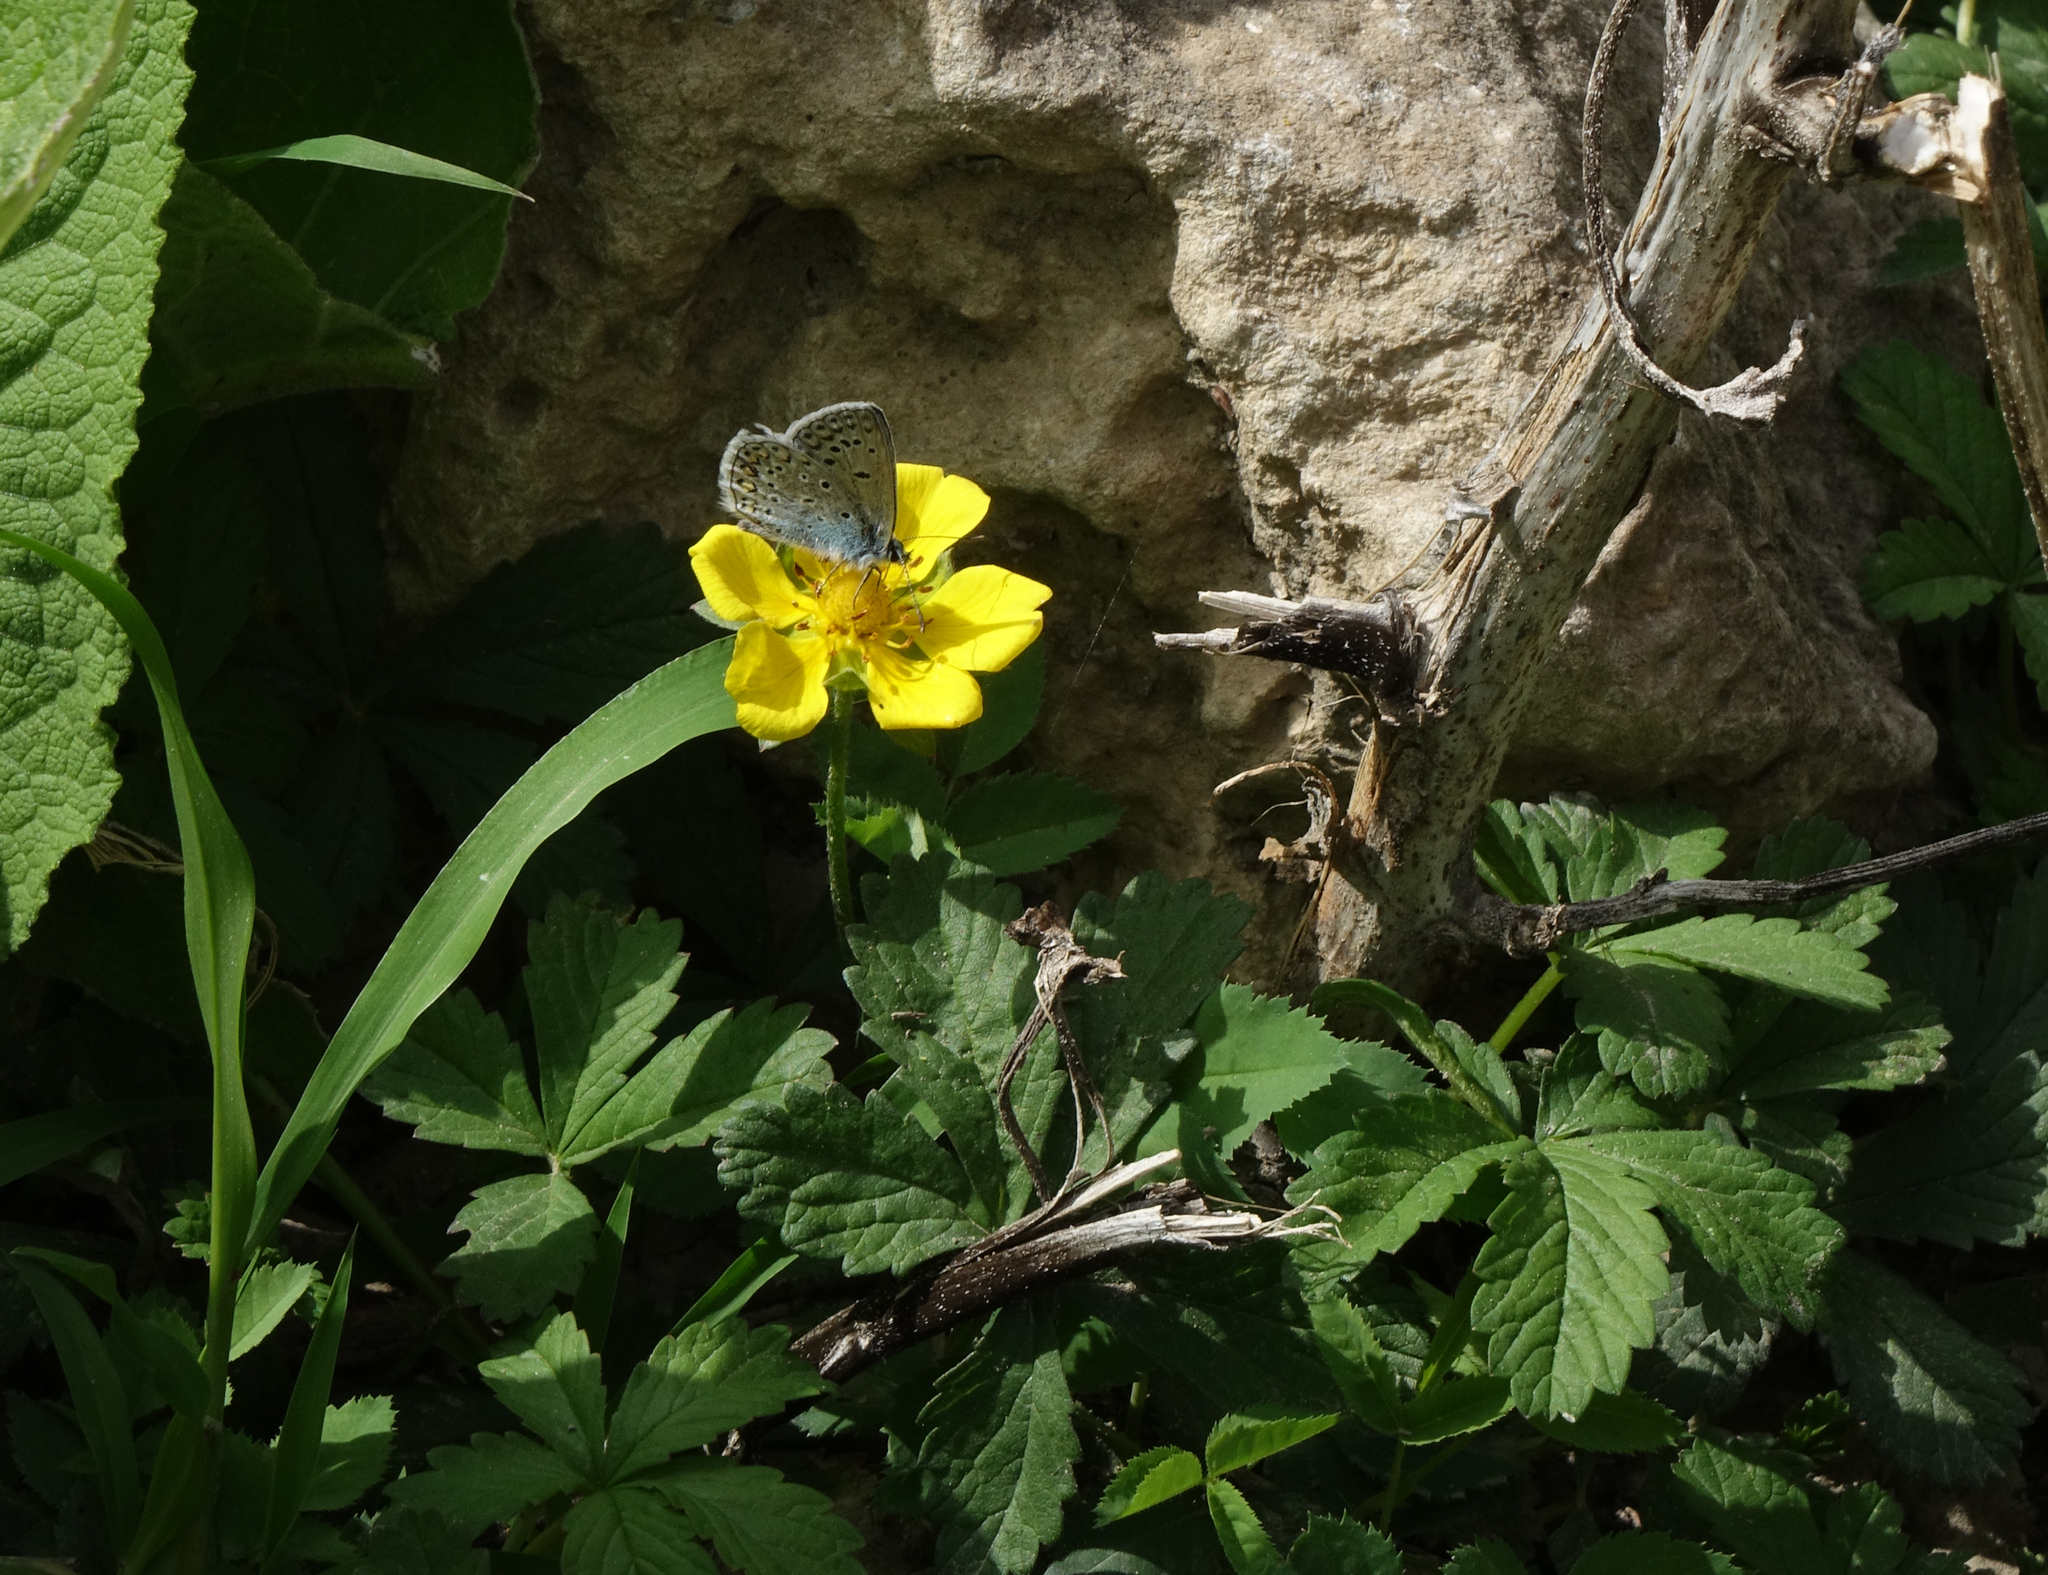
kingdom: Plantae
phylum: Tracheophyta
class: Magnoliopsida
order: Rosales
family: Rosaceae
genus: Potentilla
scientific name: Potentilla reptans
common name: Creeping cinquefoil
